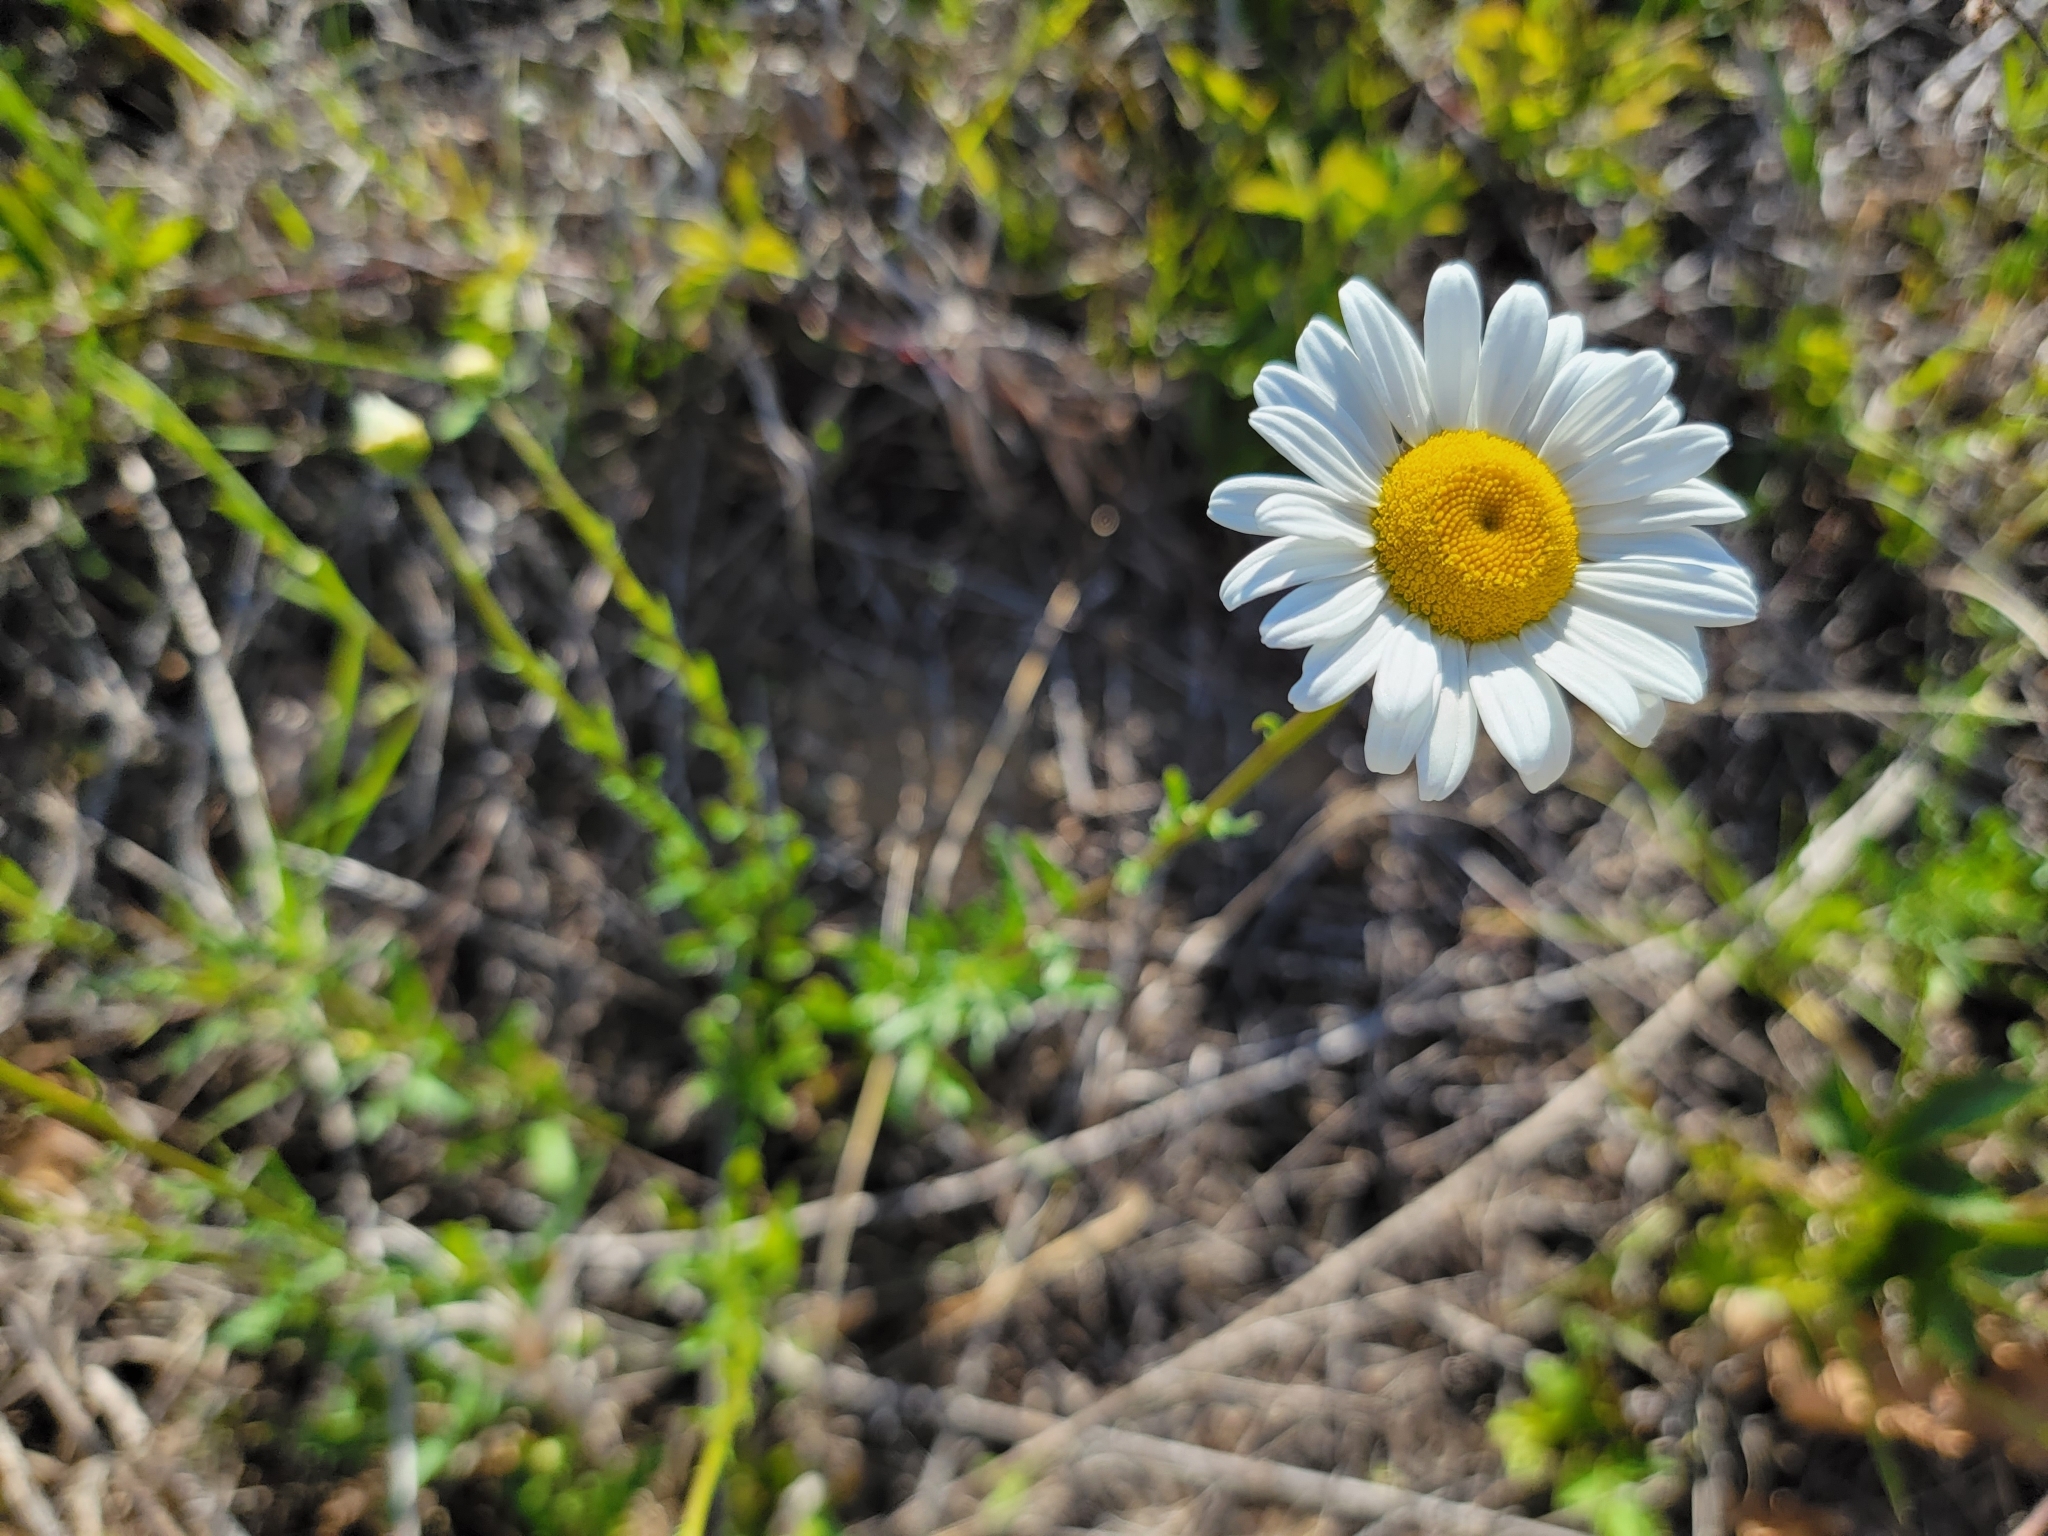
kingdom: Plantae
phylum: Tracheophyta
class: Magnoliopsida
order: Asterales
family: Asteraceae
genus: Leucanthemum
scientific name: Leucanthemum vulgare
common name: Oxeye daisy
